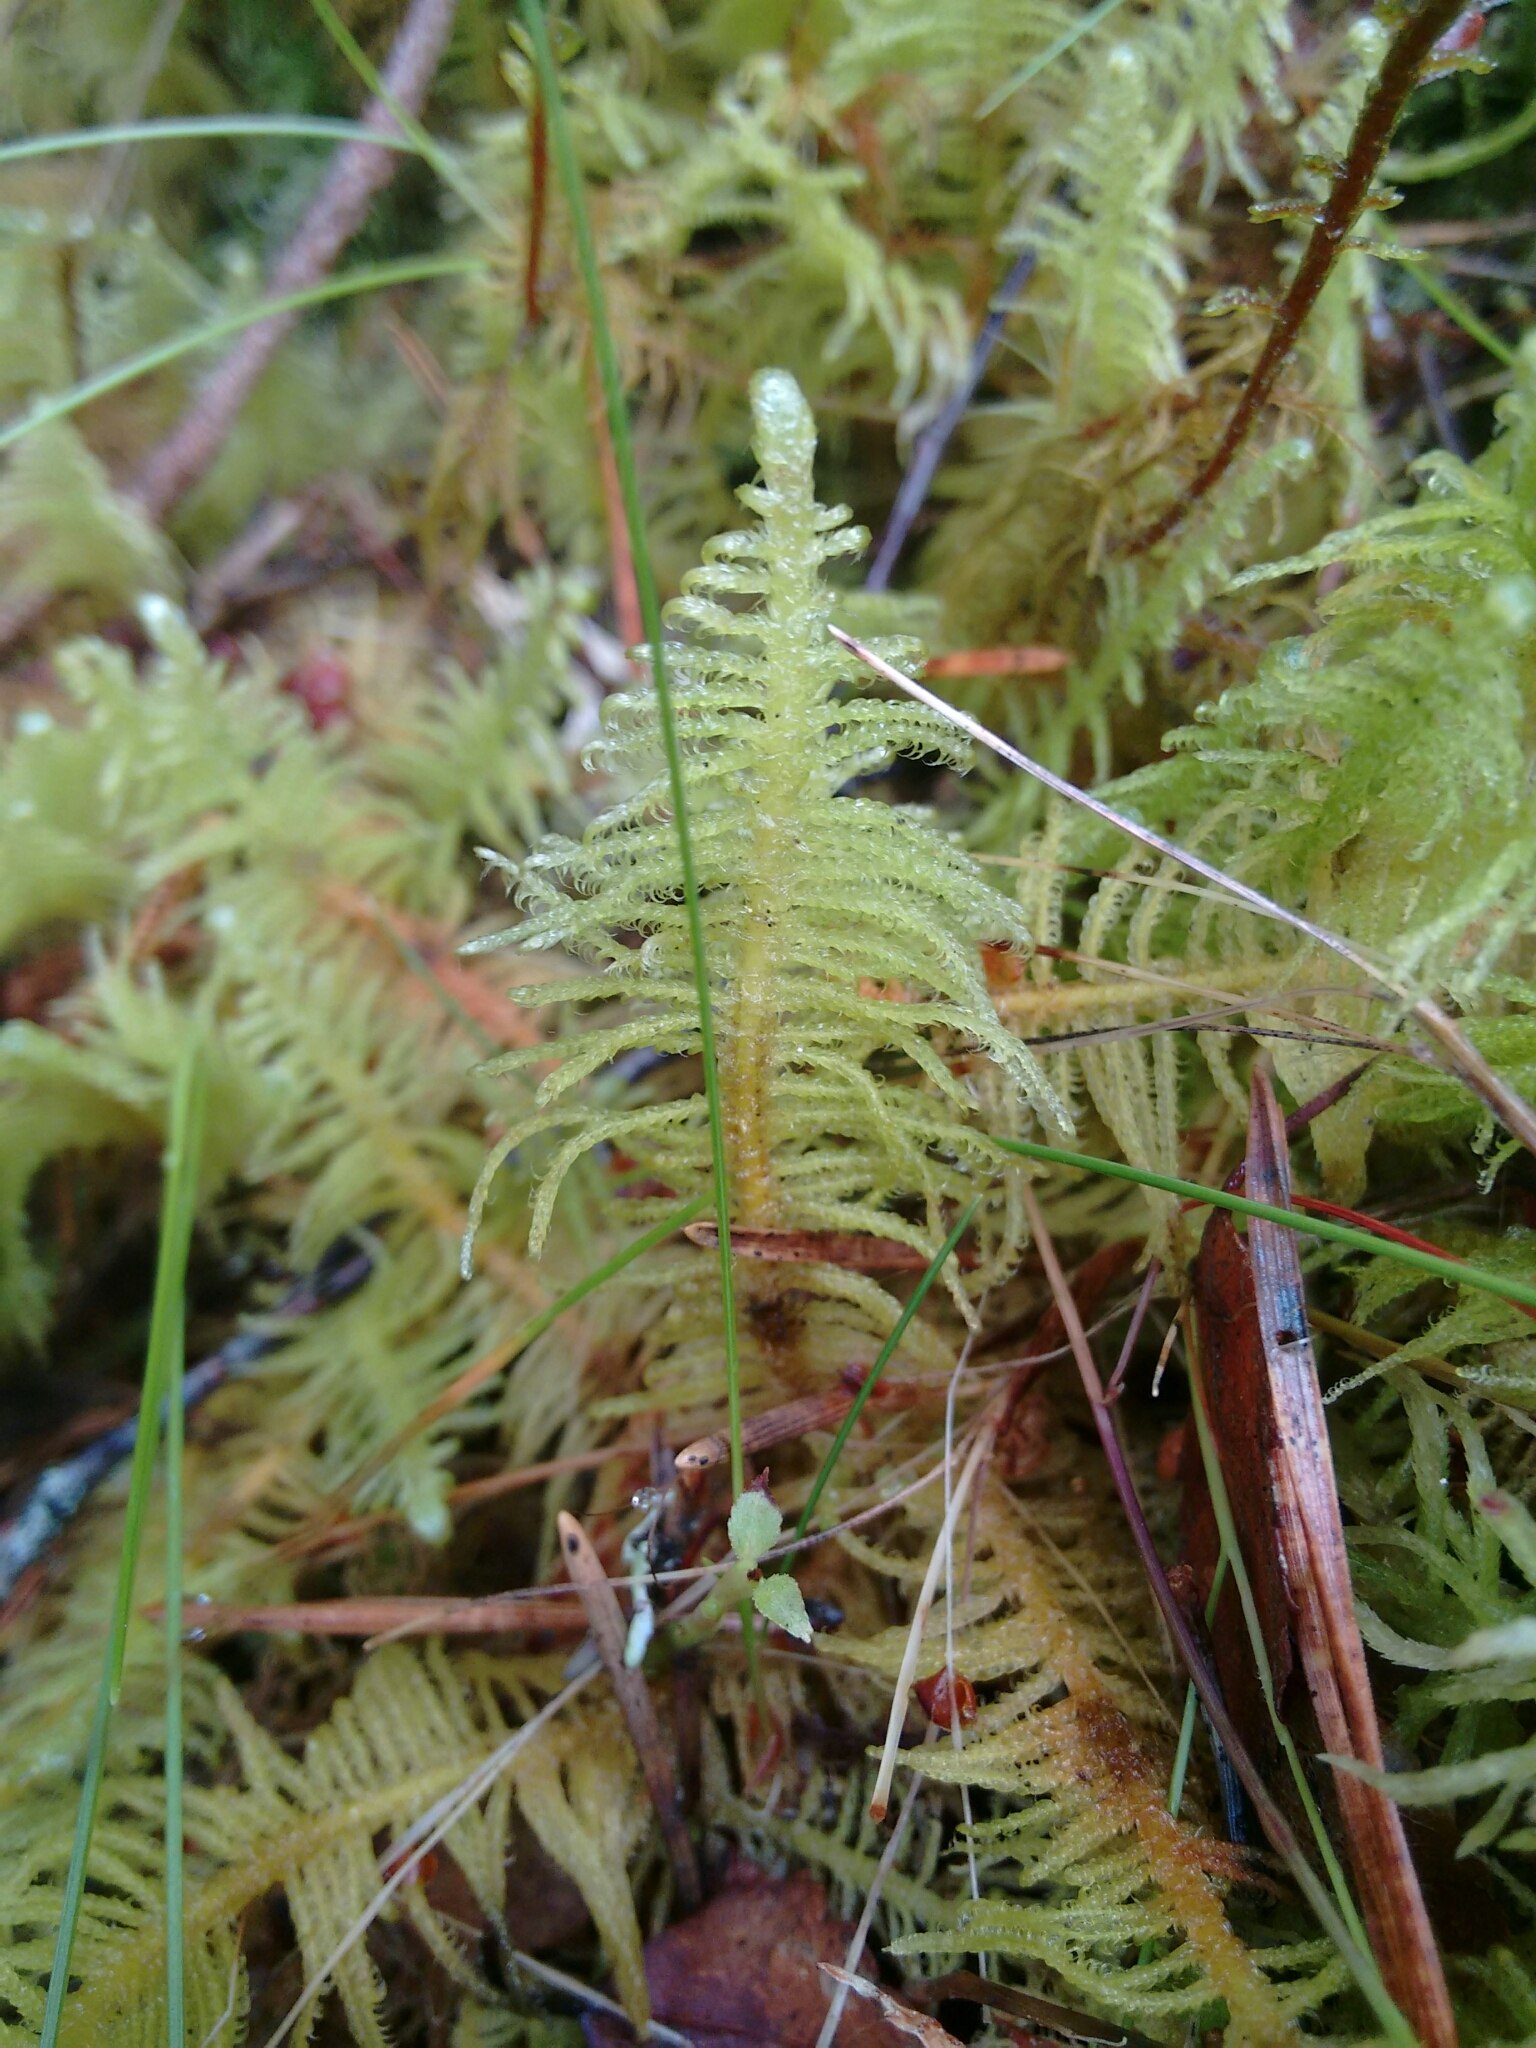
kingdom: Plantae
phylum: Bryophyta
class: Bryopsida
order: Hypnales
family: Pylaisiaceae
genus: Ptilium
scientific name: Ptilium crista-castrensis
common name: Knight's plume moss
